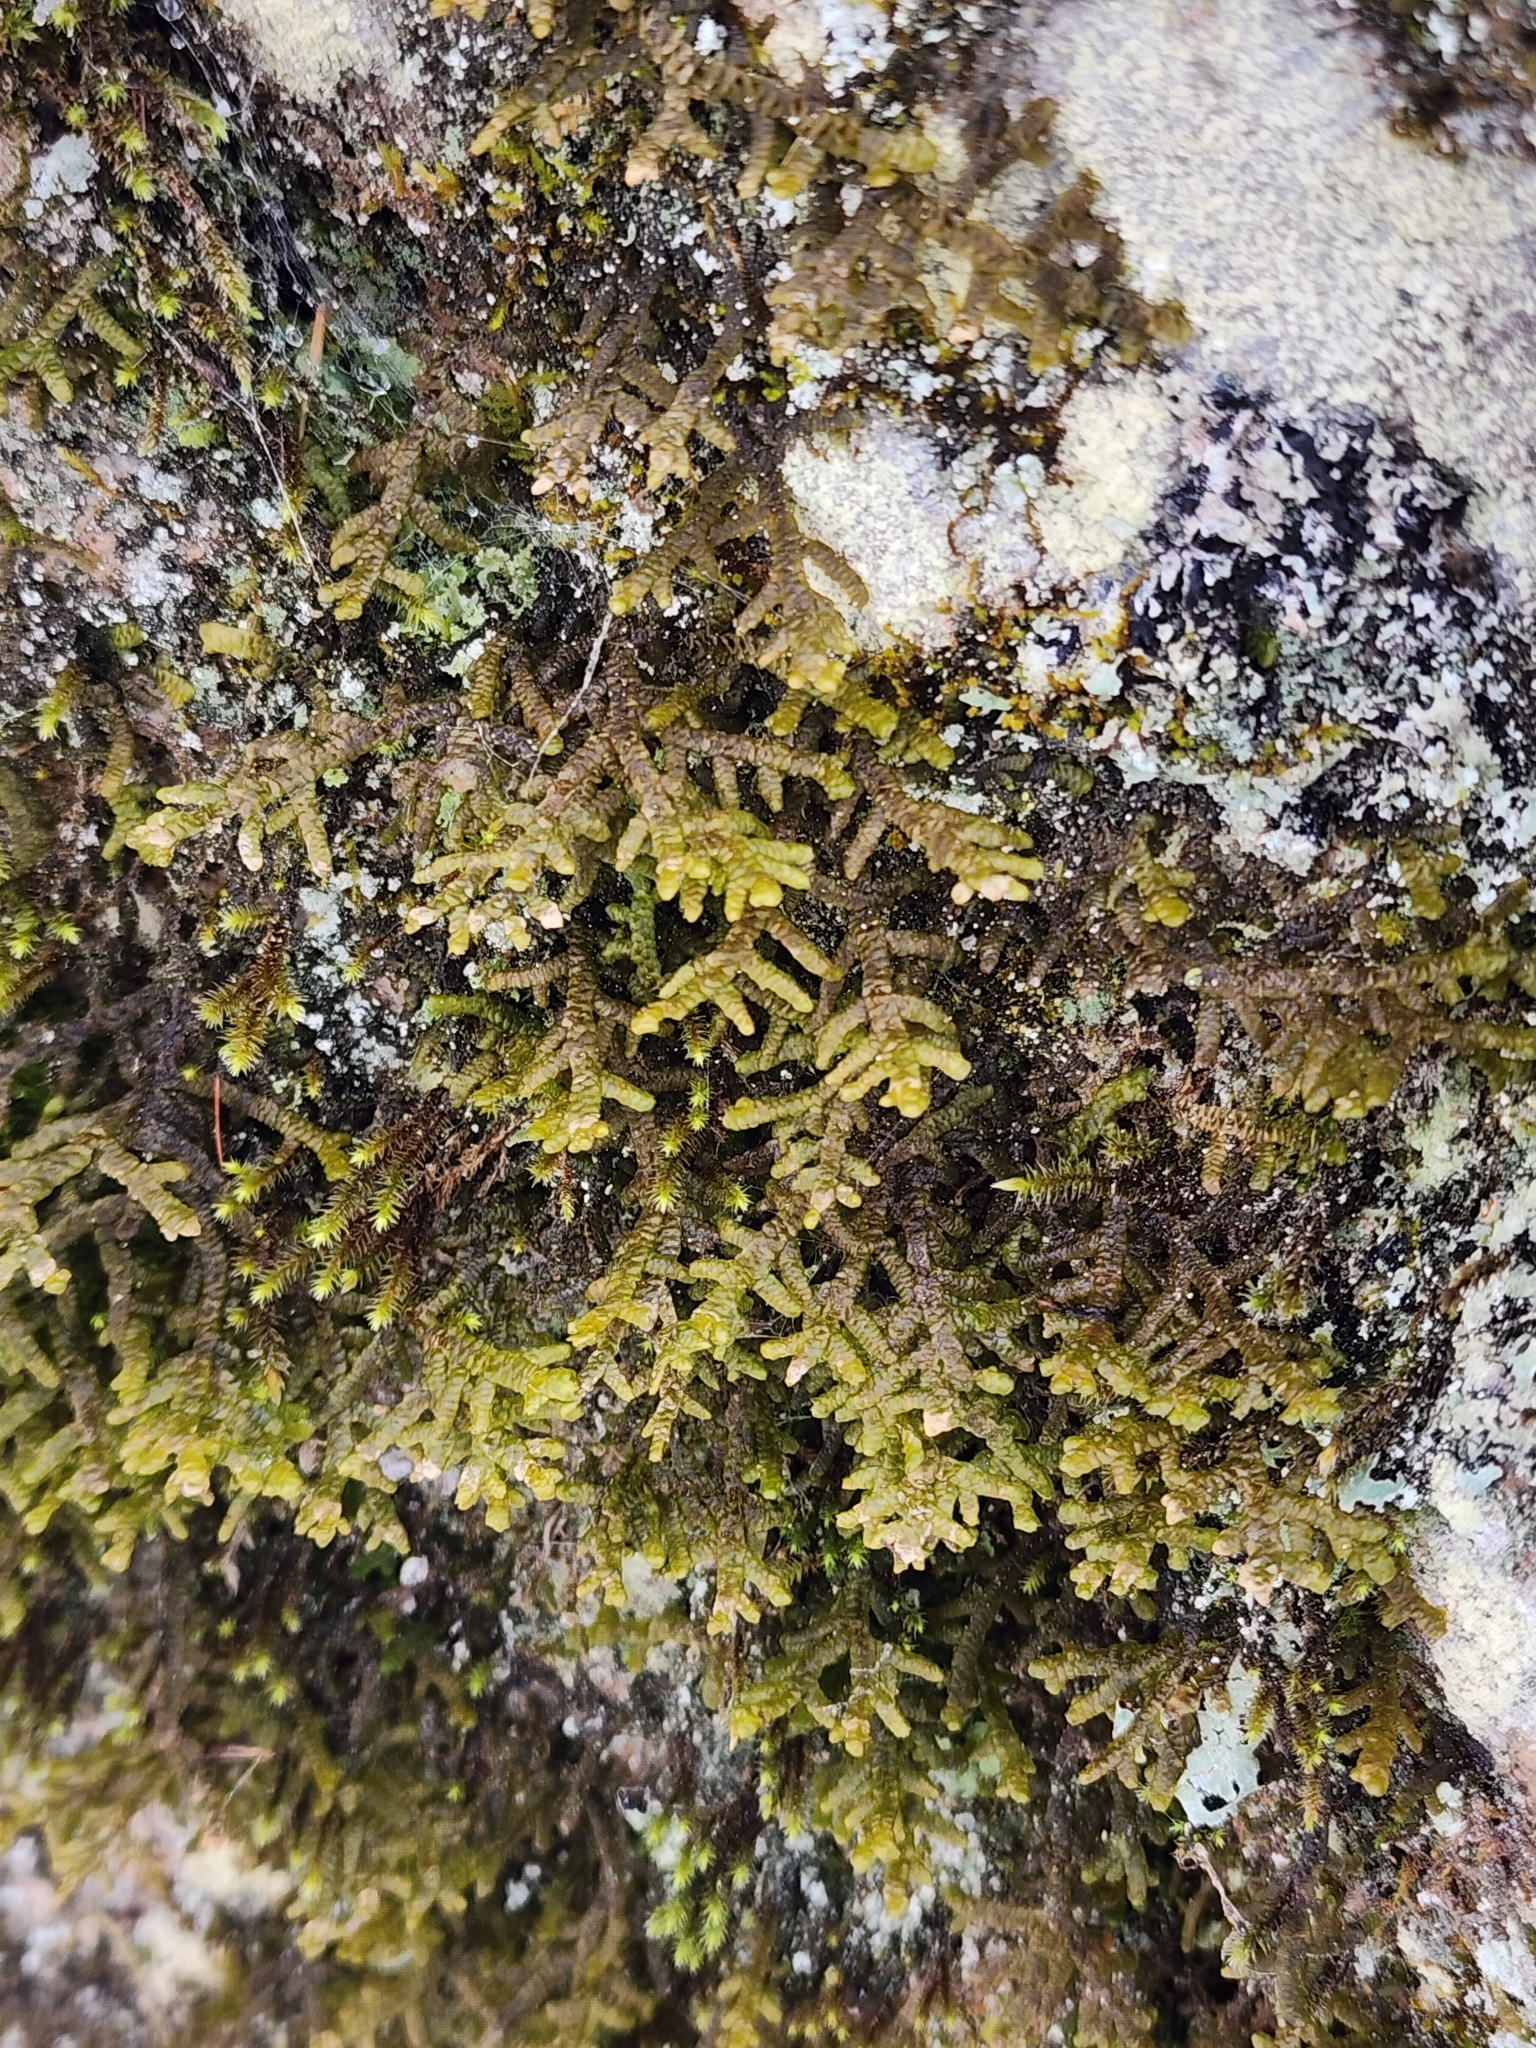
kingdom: Plantae
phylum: Marchantiophyta
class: Jungermanniopsida
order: Porellales
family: Porellaceae
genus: Porella
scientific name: Porella platyphylla
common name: Wall scalewort
